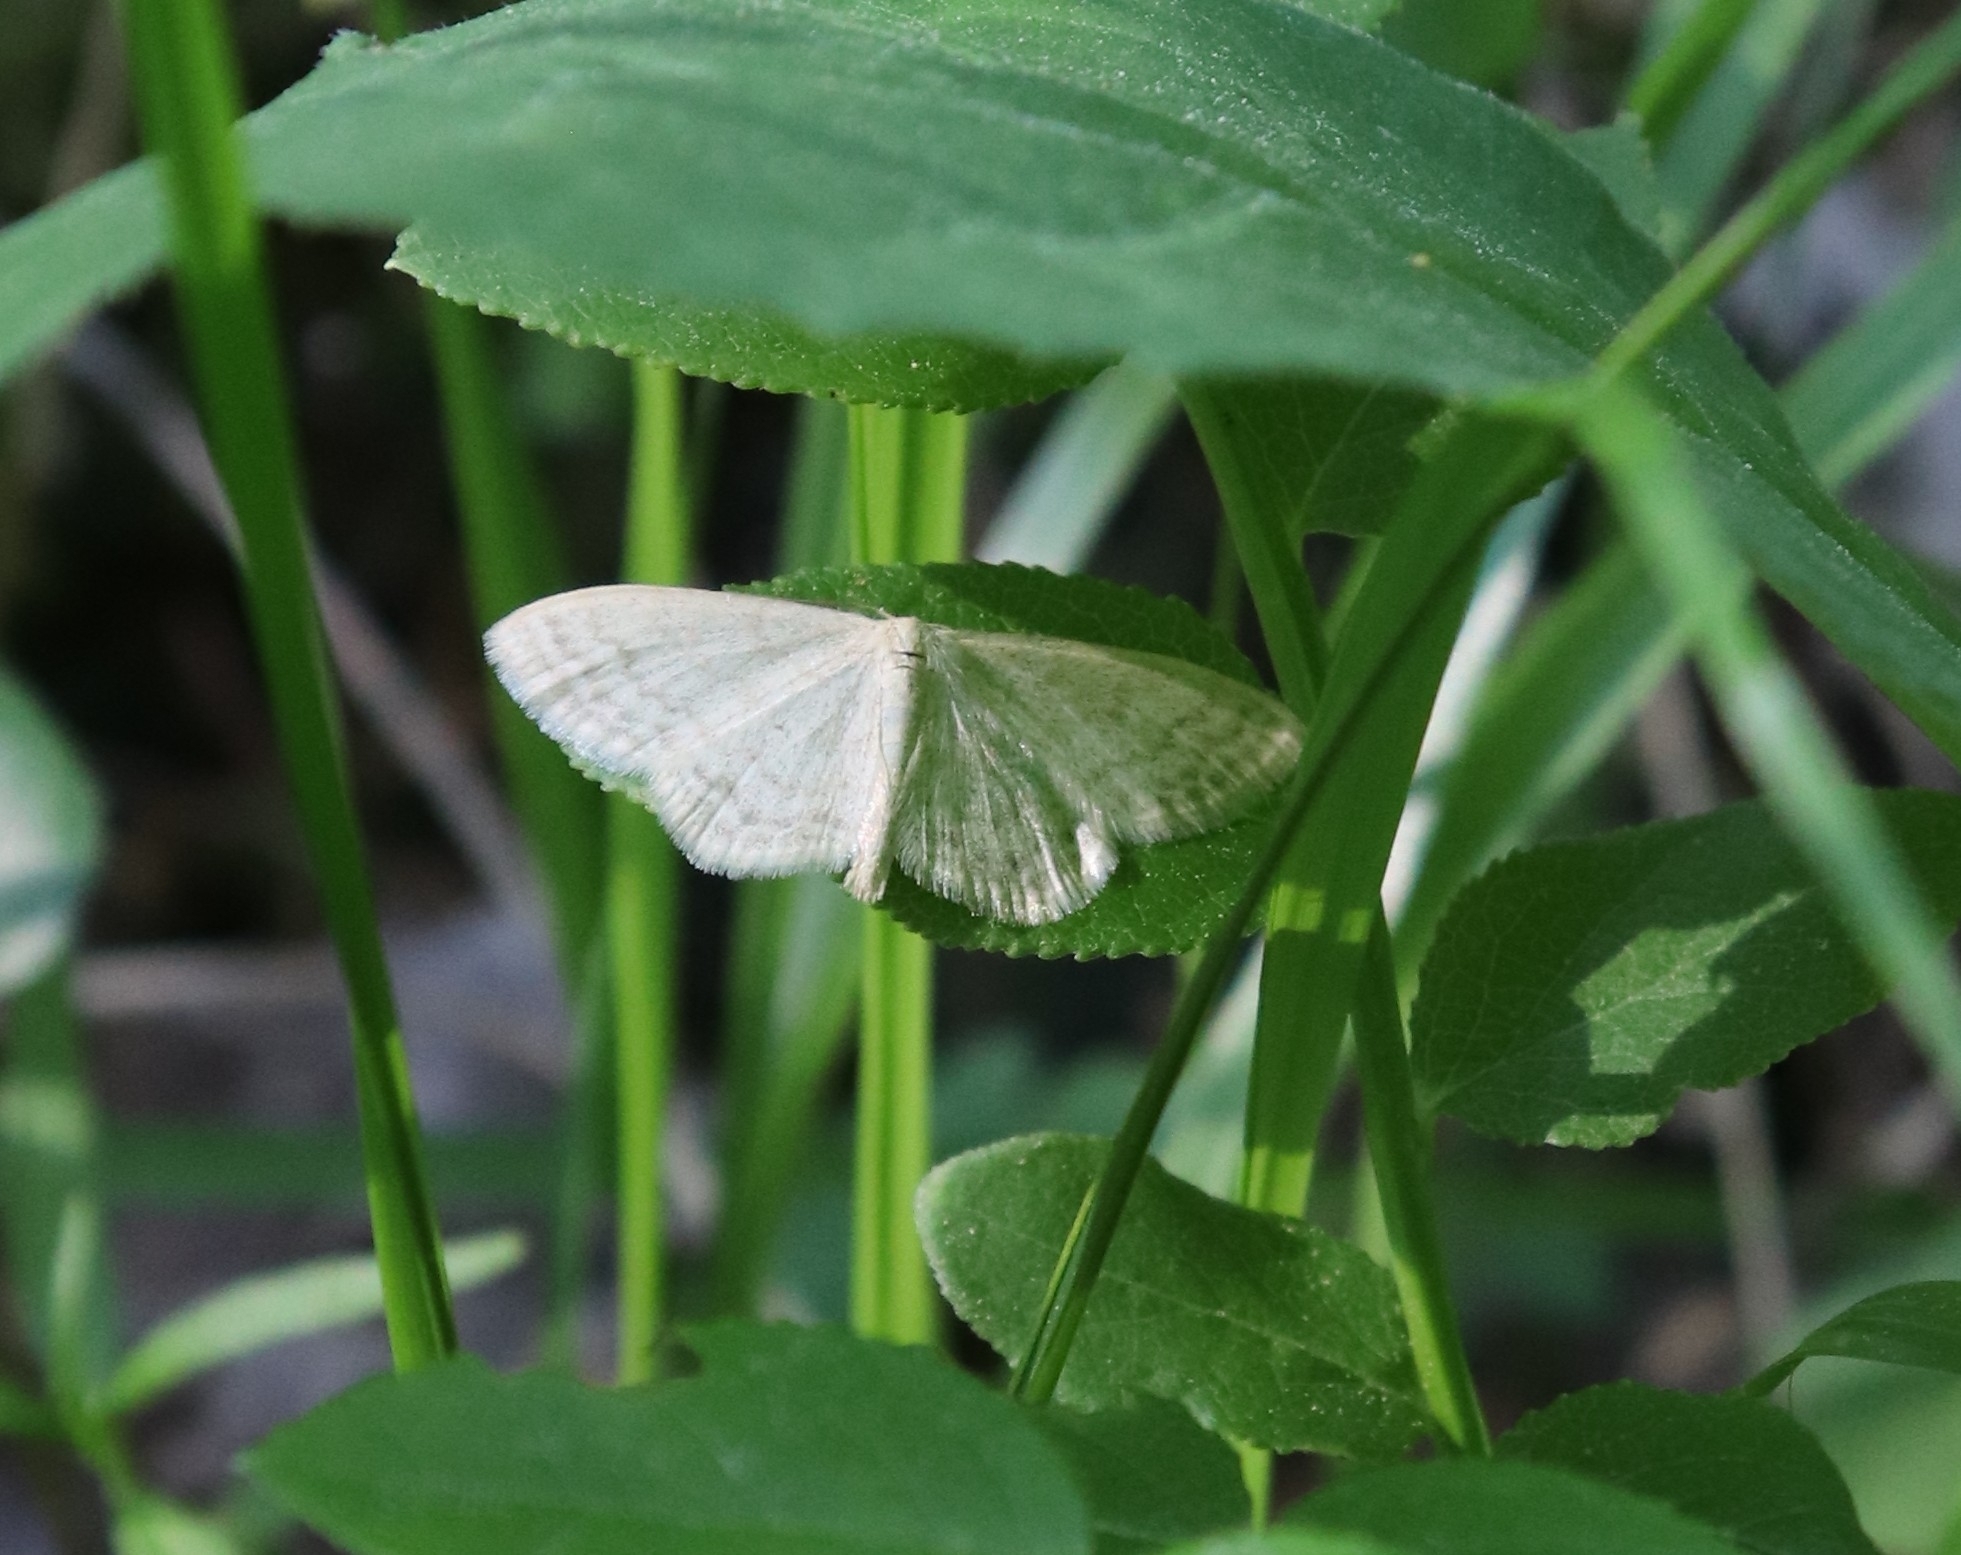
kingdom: Animalia
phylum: Arthropoda
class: Insecta
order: Lepidoptera
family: Geometridae
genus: Scopula
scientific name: Scopula floslactata
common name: Cream wave
